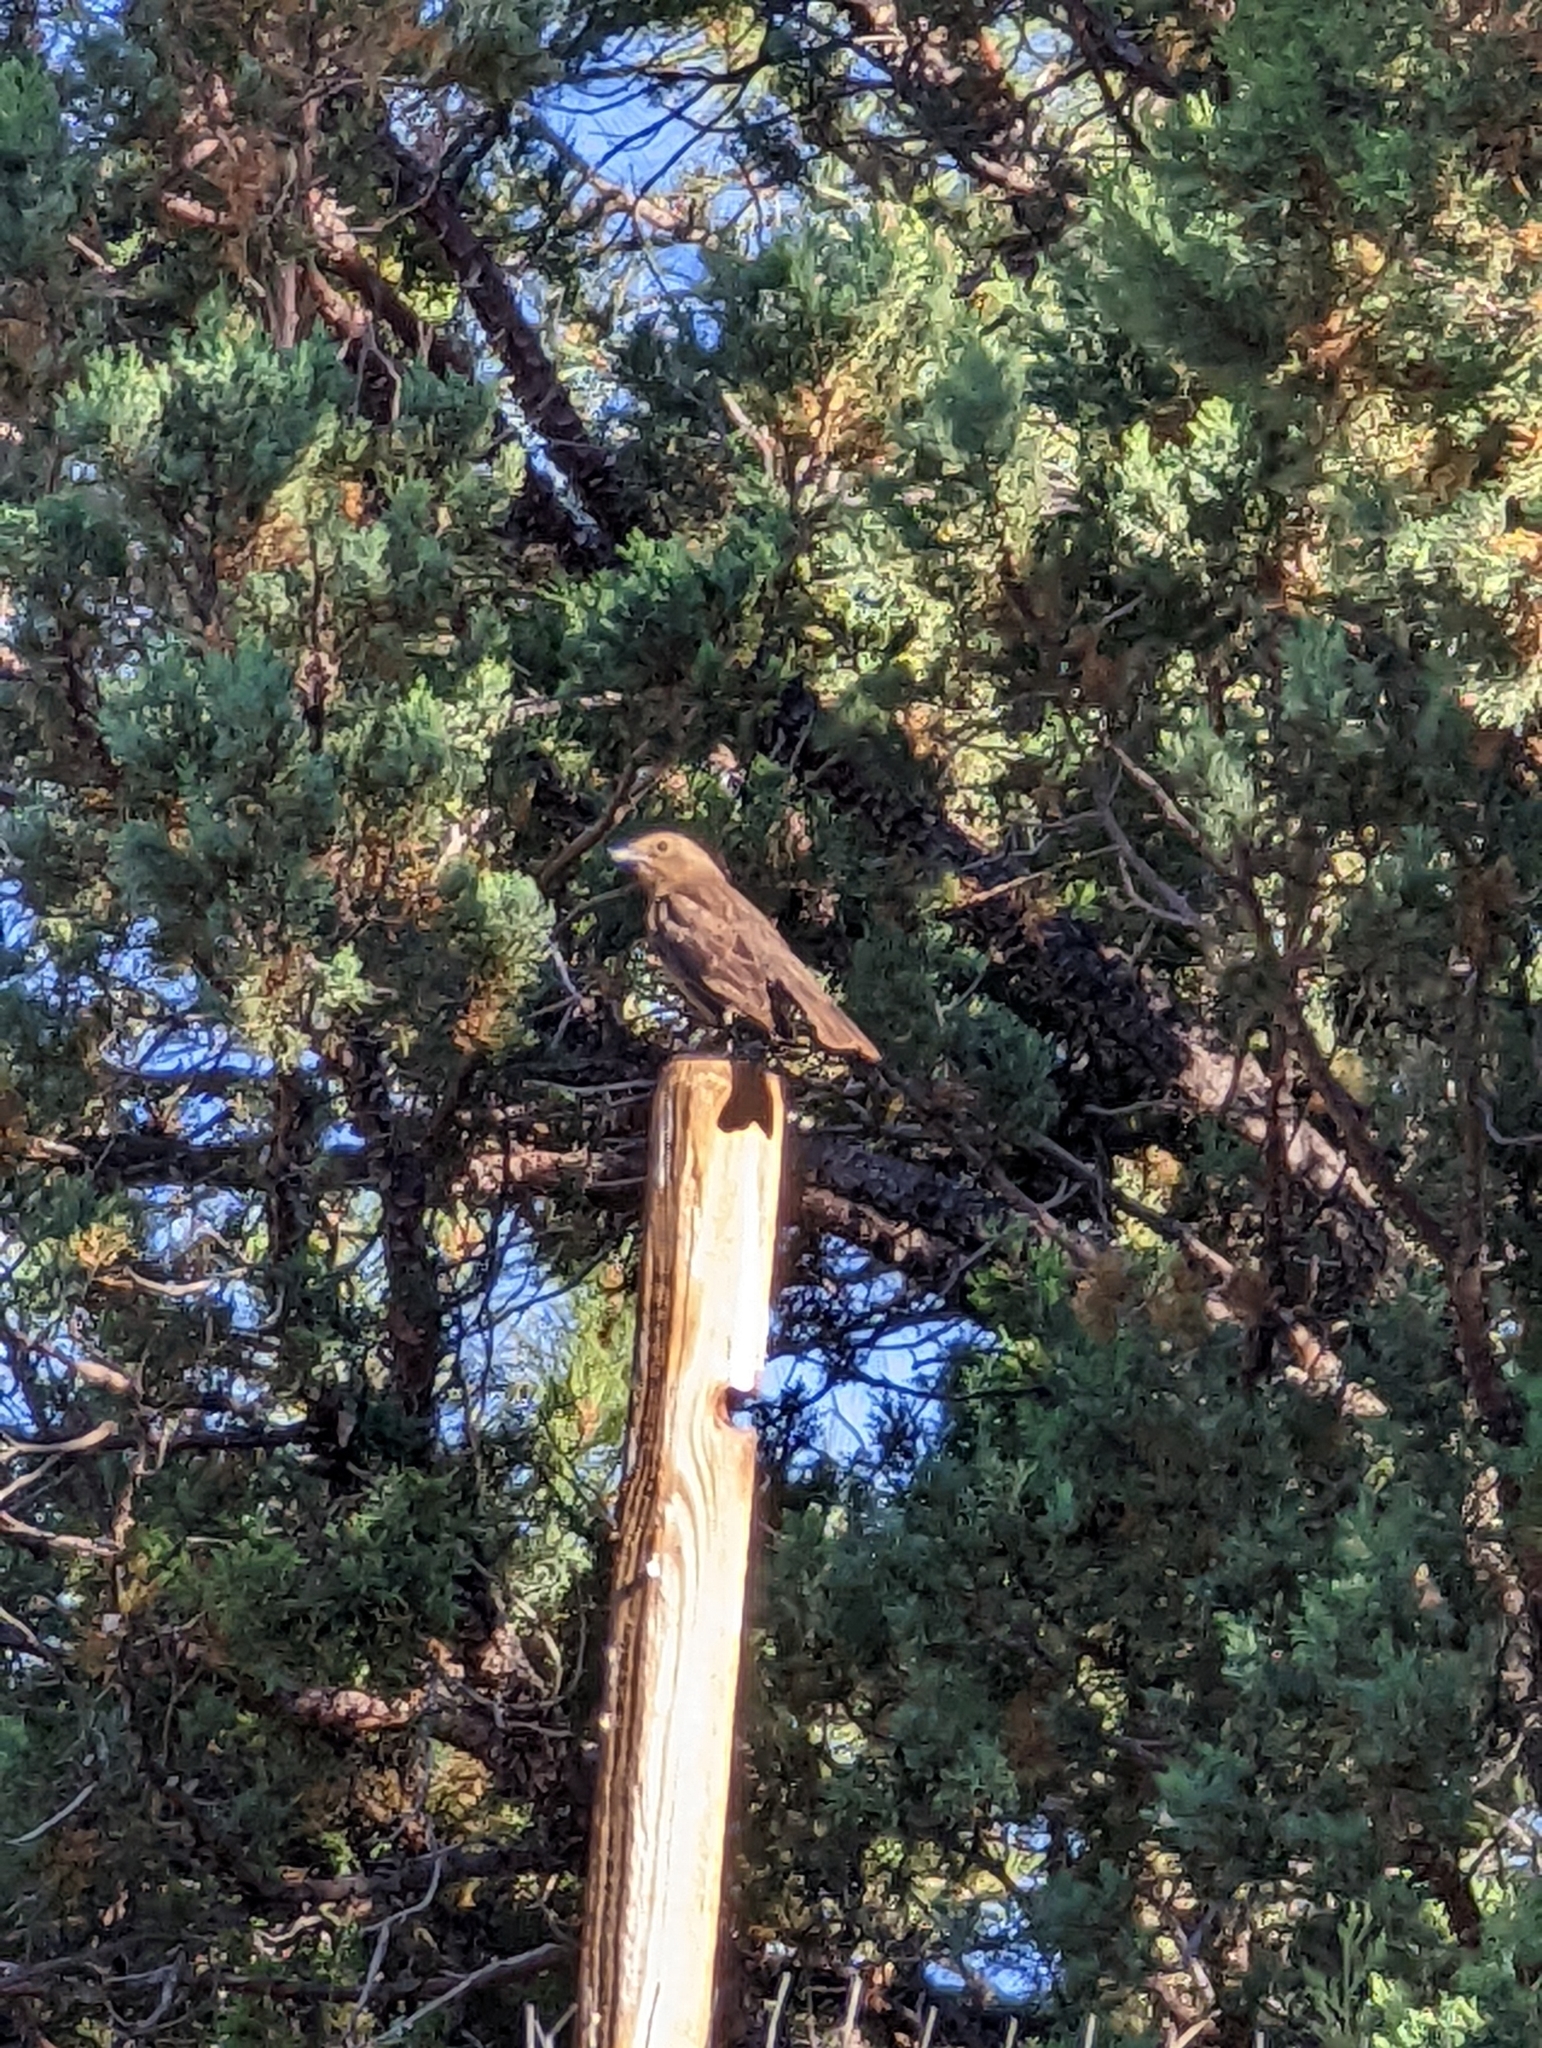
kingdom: Animalia
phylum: Chordata
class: Aves
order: Passeriformes
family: Icteridae
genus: Molothrus
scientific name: Molothrus ater
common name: Brown-headed cowbird
